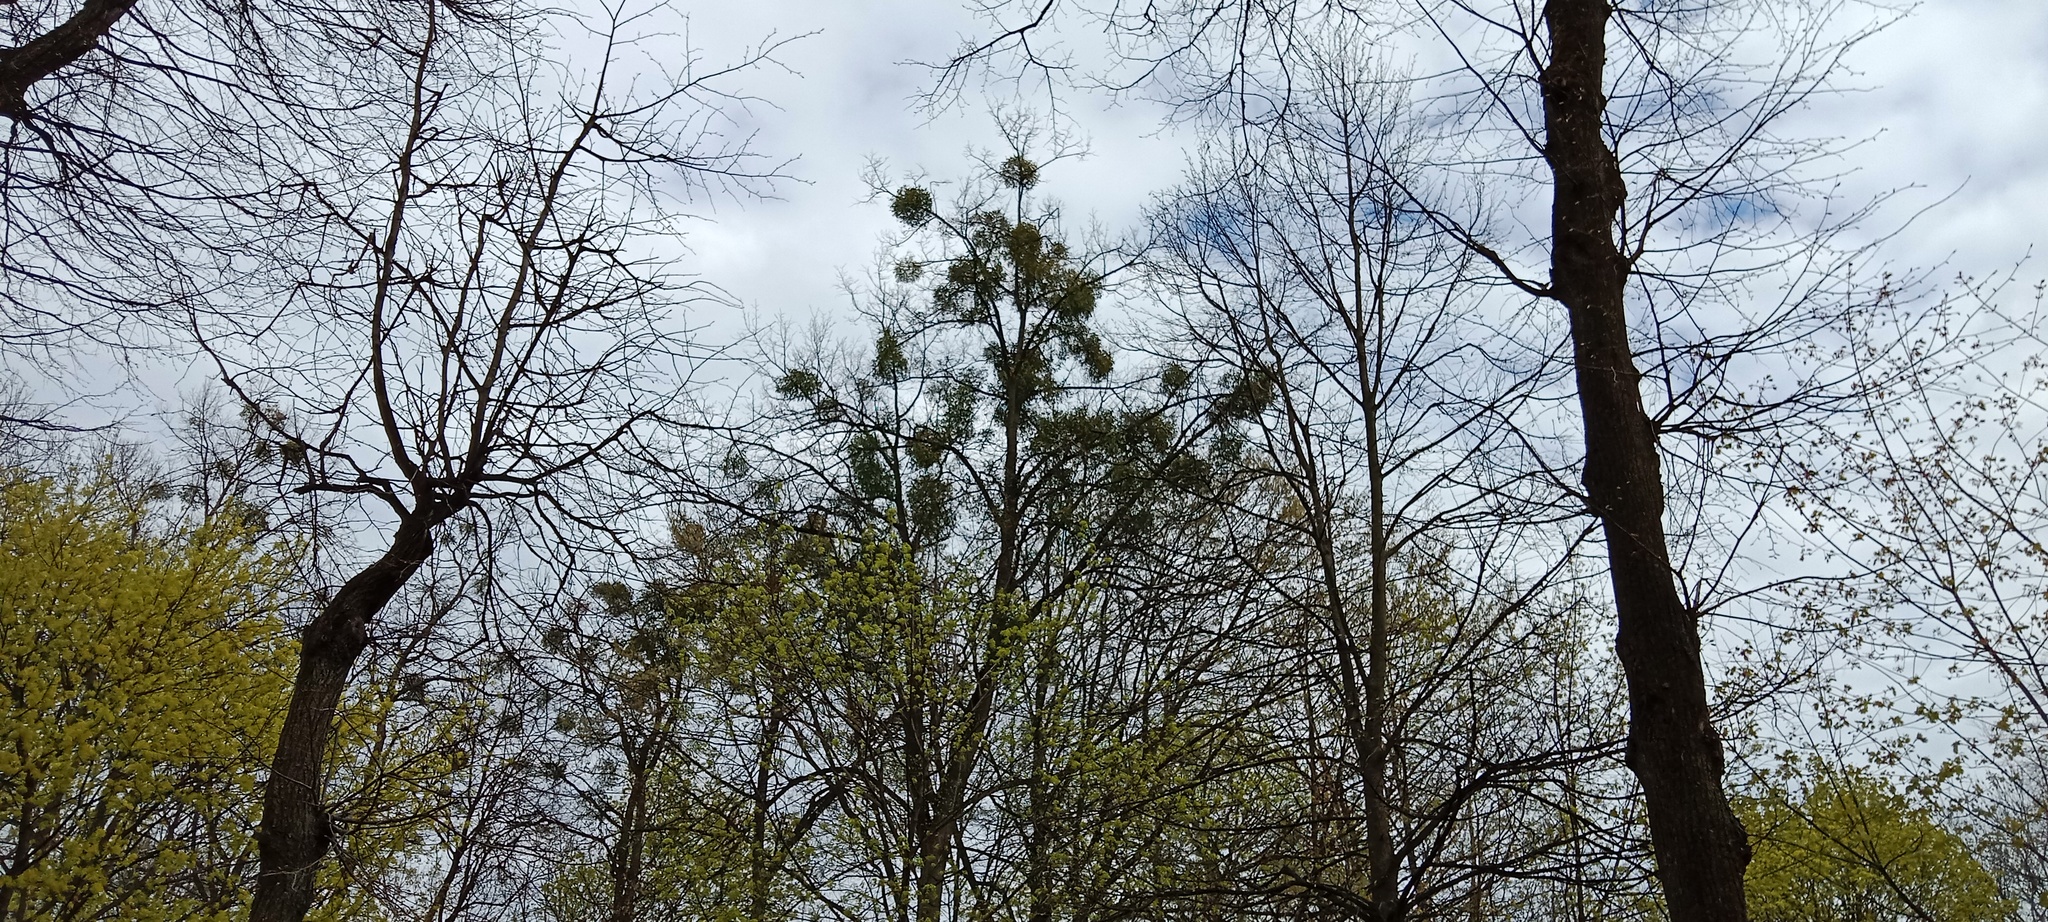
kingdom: Plantae
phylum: Tracheophyta
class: Magnoliopsida
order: Santalales
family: Viscaceae
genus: Viscum
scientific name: Viscum album
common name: Mistletoe
